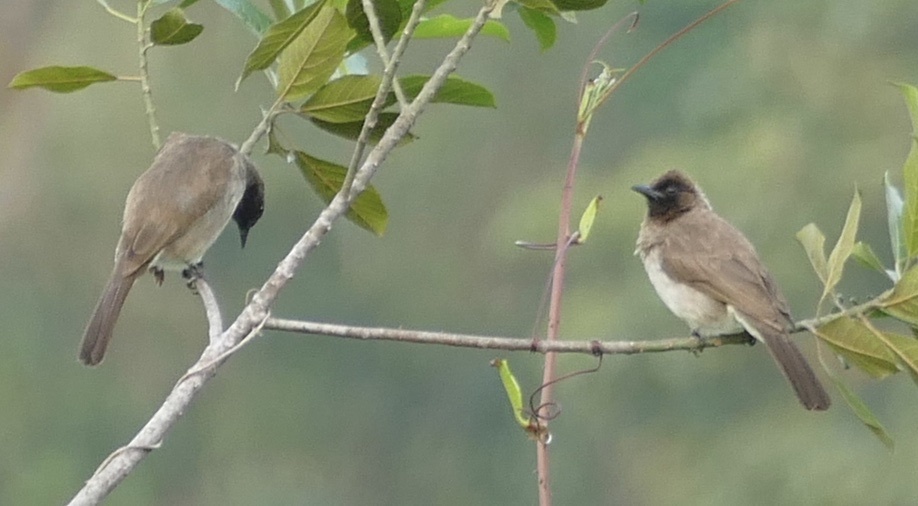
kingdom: Animalia
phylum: Chordata
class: Aves
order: Passeriformes
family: Pycnonotidae
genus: Pycnonotus
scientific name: Pycnonotus barbatus
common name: Common bulbul
